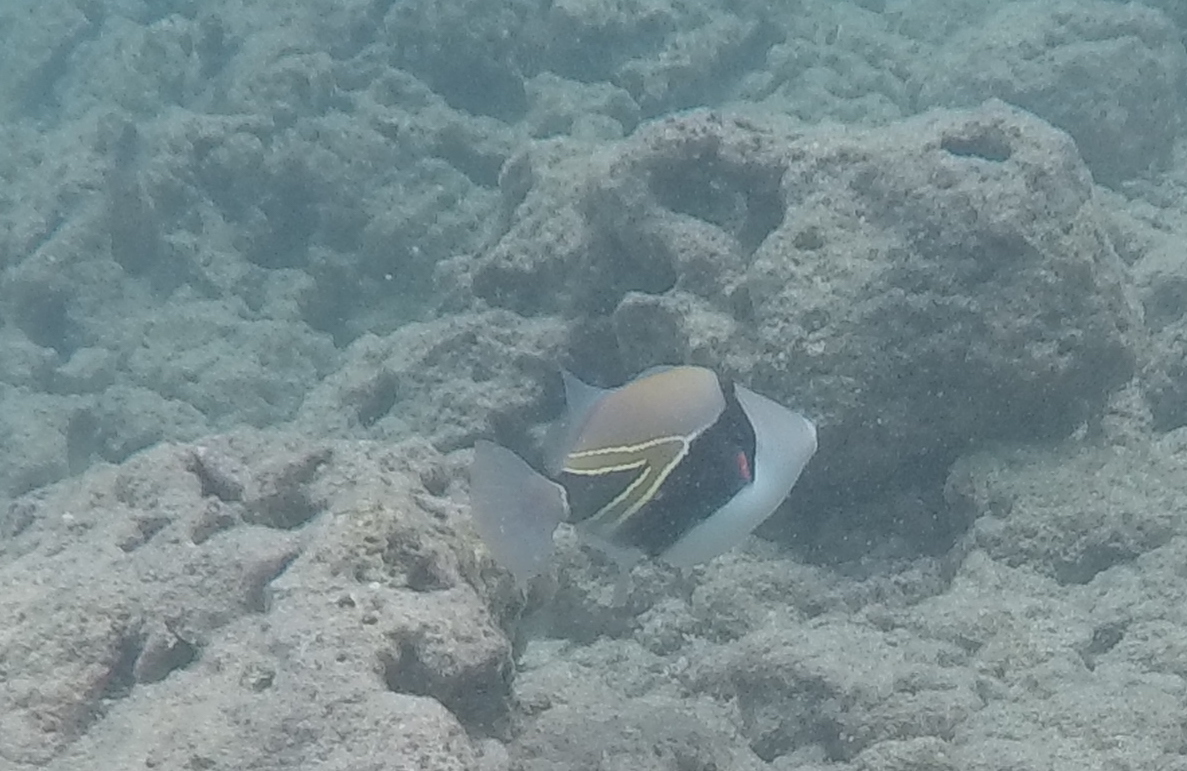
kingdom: Animalia
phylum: Chordata
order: Tetraodontiformes
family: Balistidae
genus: Rhinecanthus
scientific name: Rhinecanthus rectangulus
